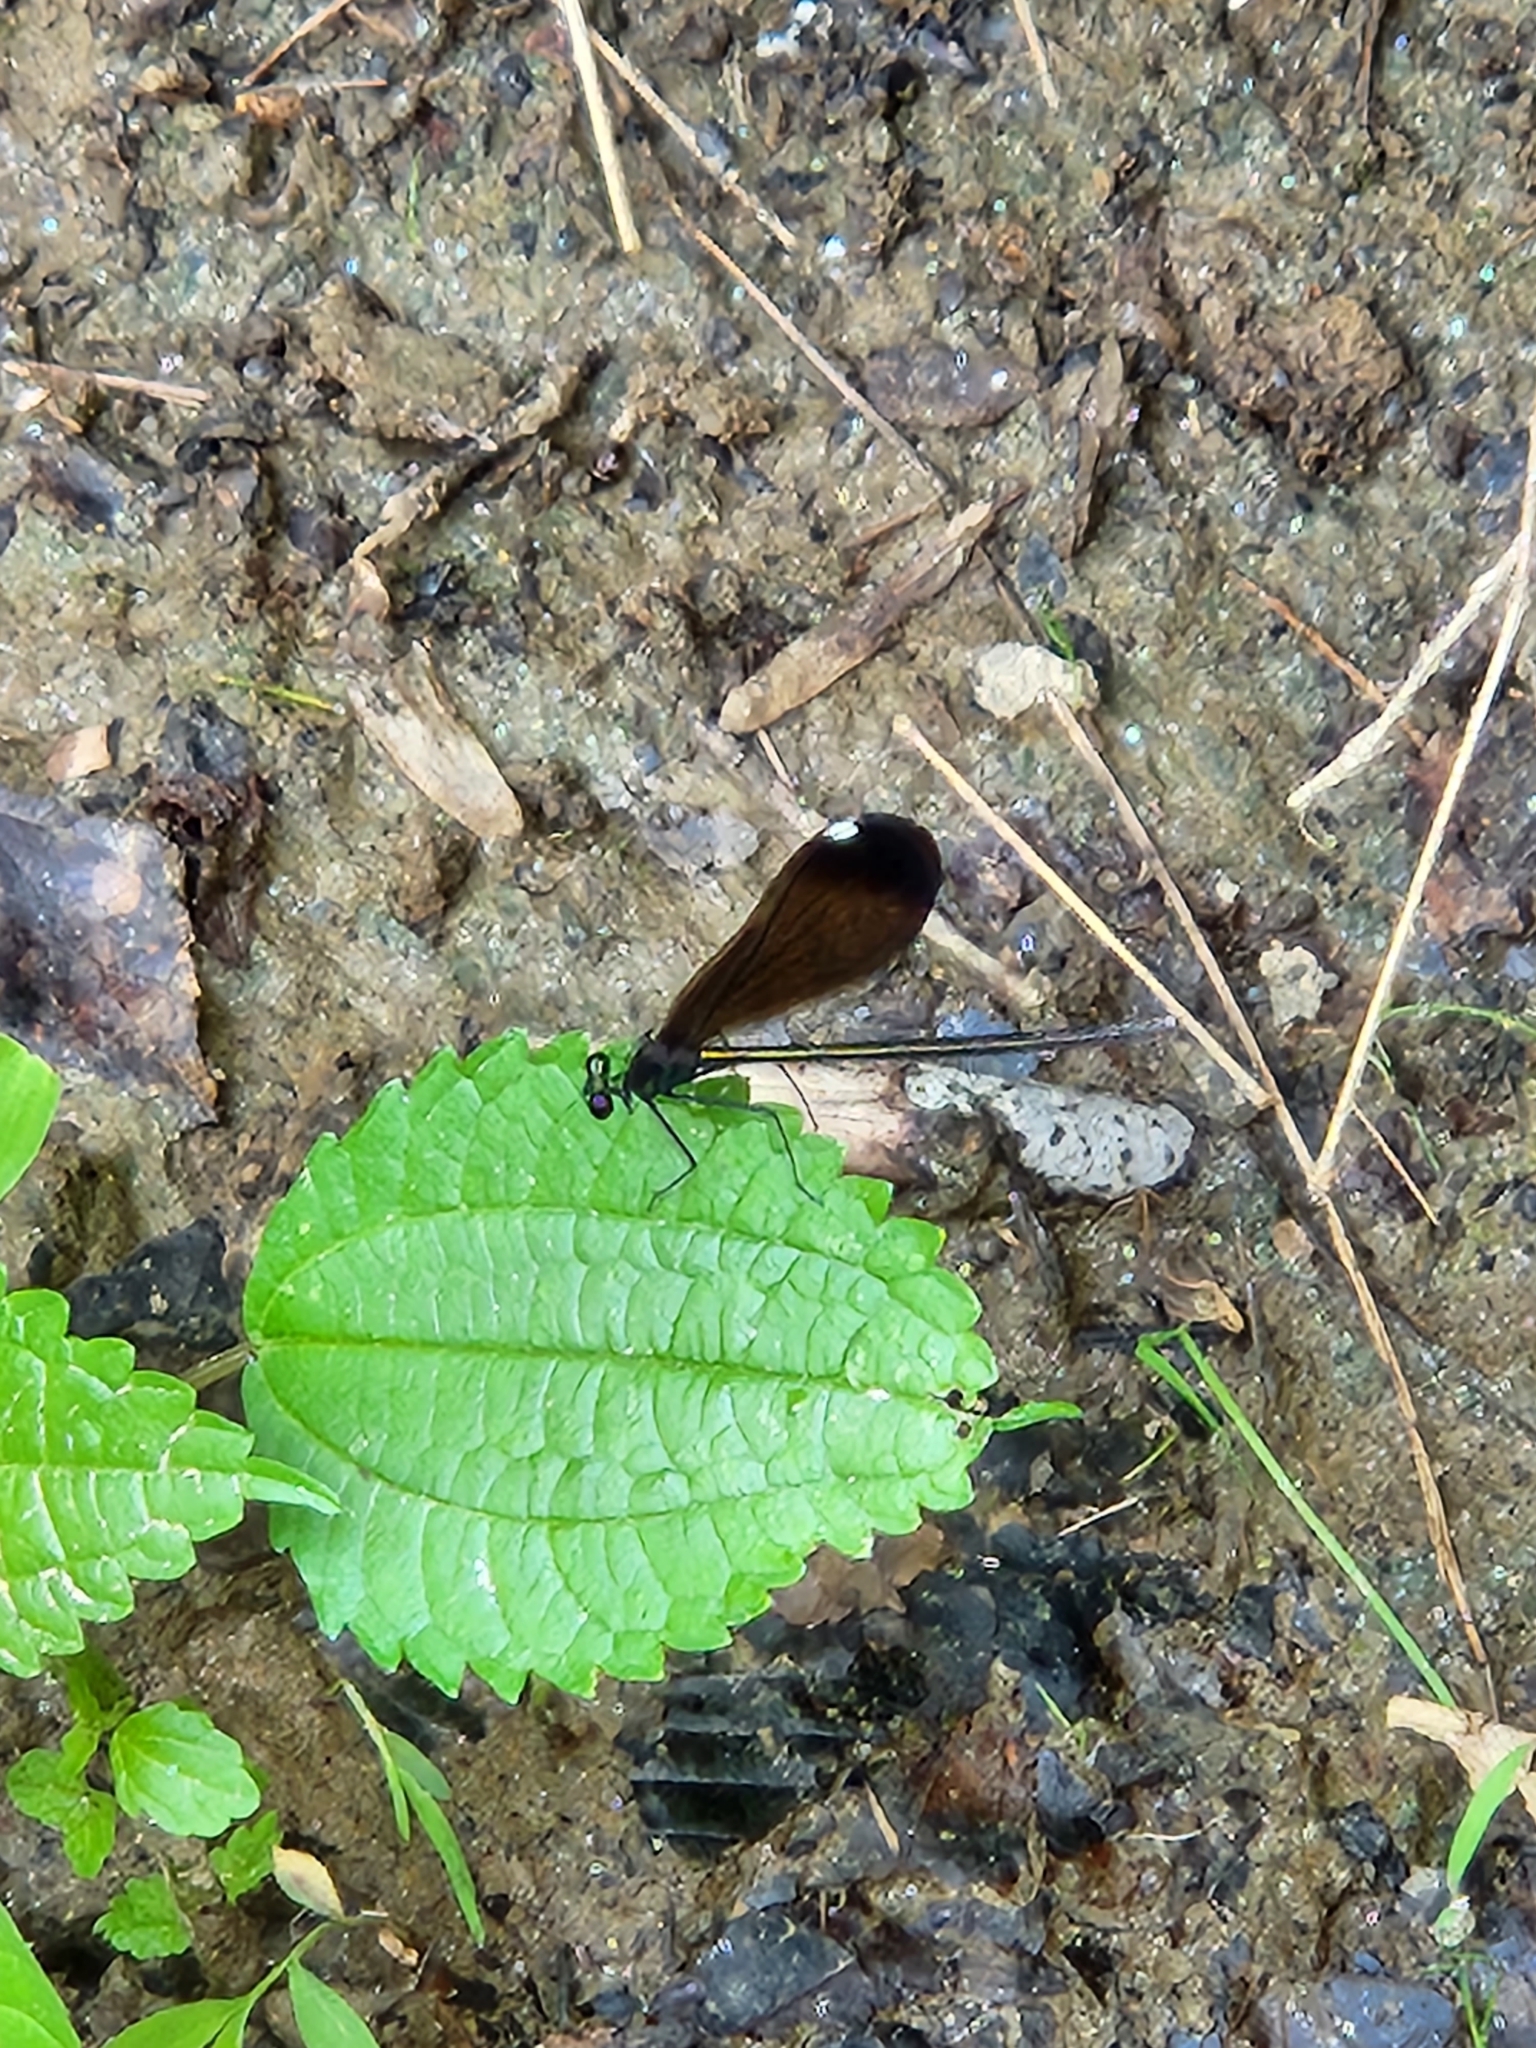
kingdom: Animalia
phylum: Arthropoda
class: Insecta
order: Odonata
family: Calopterygidae
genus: Calopteryx
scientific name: Calopteryx maculata
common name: Ebony jewelwing
